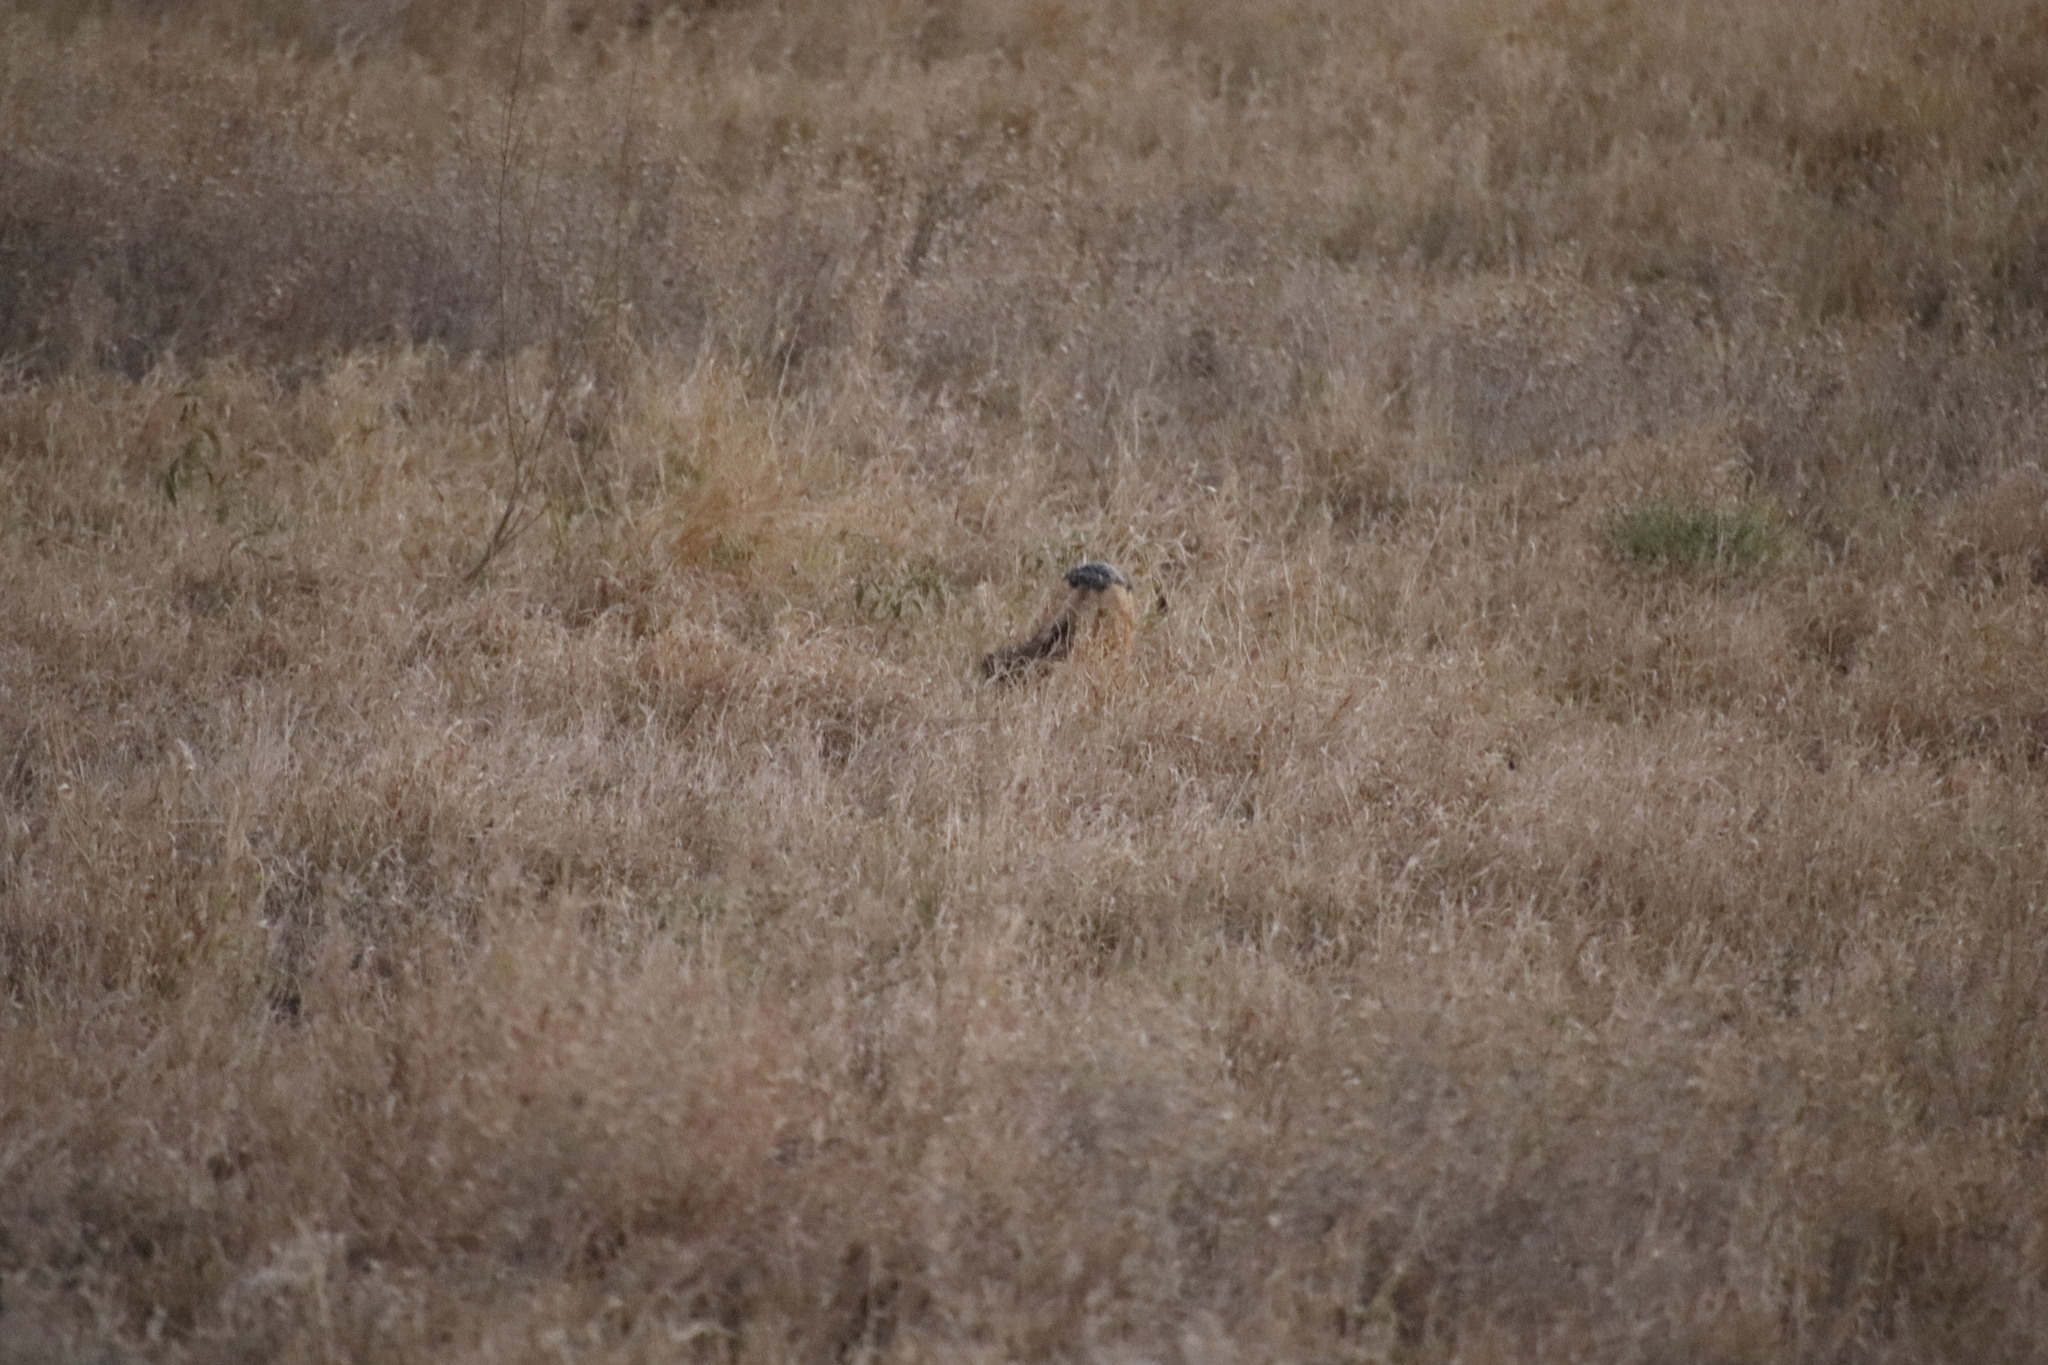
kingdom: Animalia
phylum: Chordata
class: Mammalia
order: Carnivora
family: Canidae
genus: Lupulella
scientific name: Lupulella
